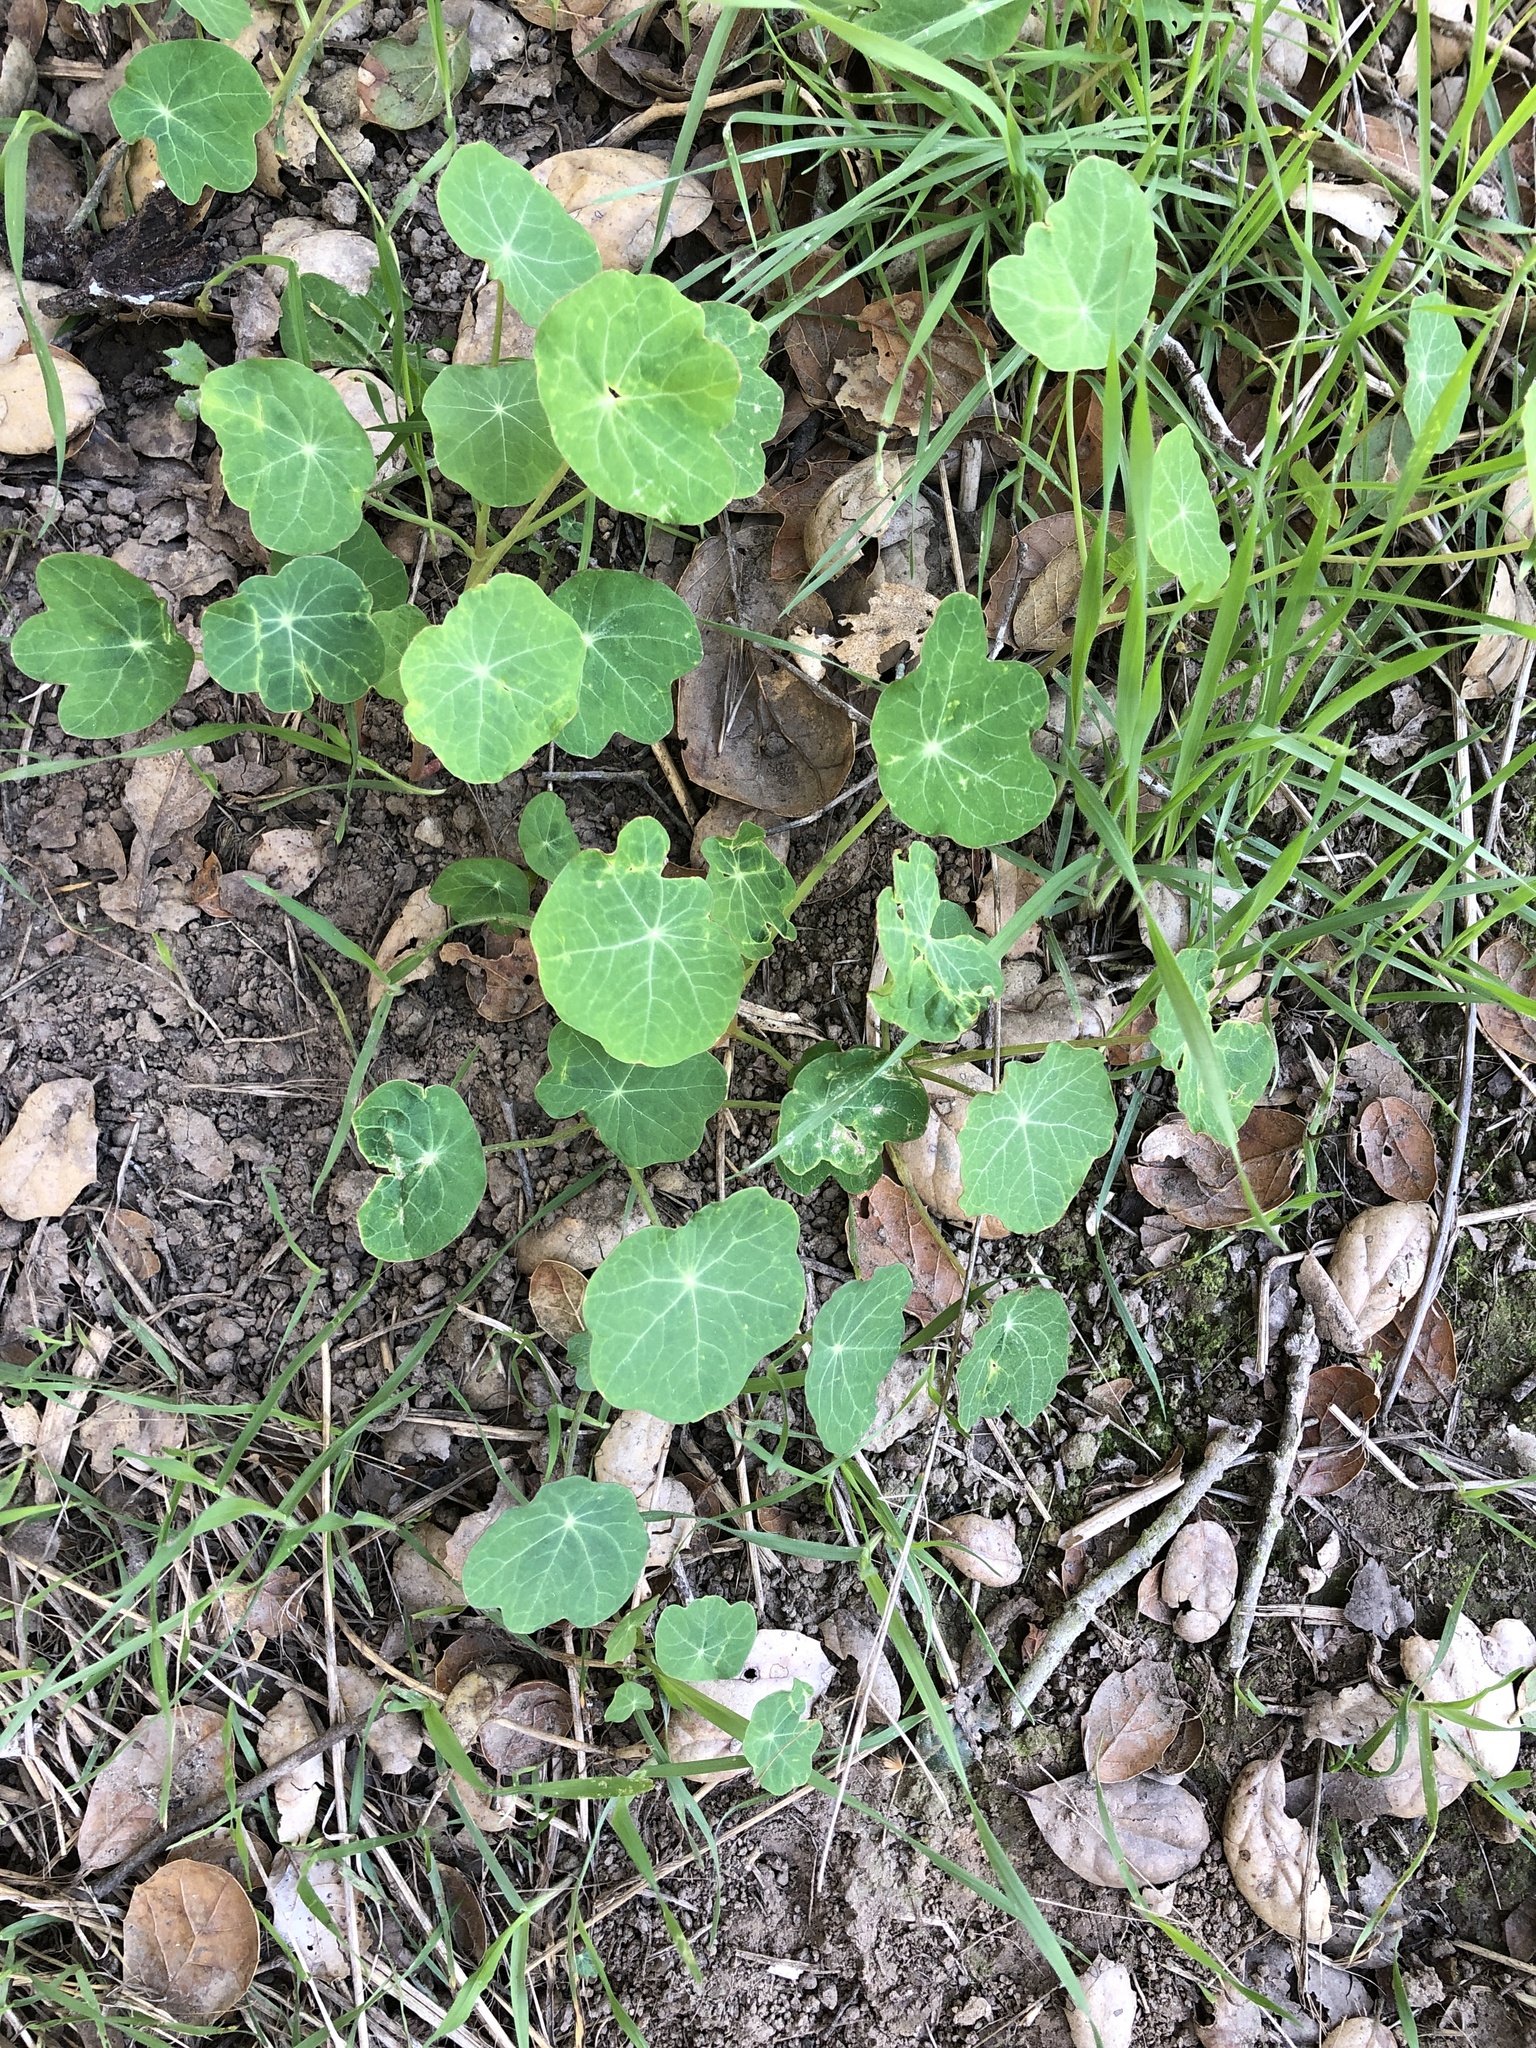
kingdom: Plantae
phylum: Tracheophyta
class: Magnoliopsida
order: Brassicales
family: Tropaeolaceae
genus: Tropaeolum
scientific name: Tropaeolum majus
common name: Nasturtium
